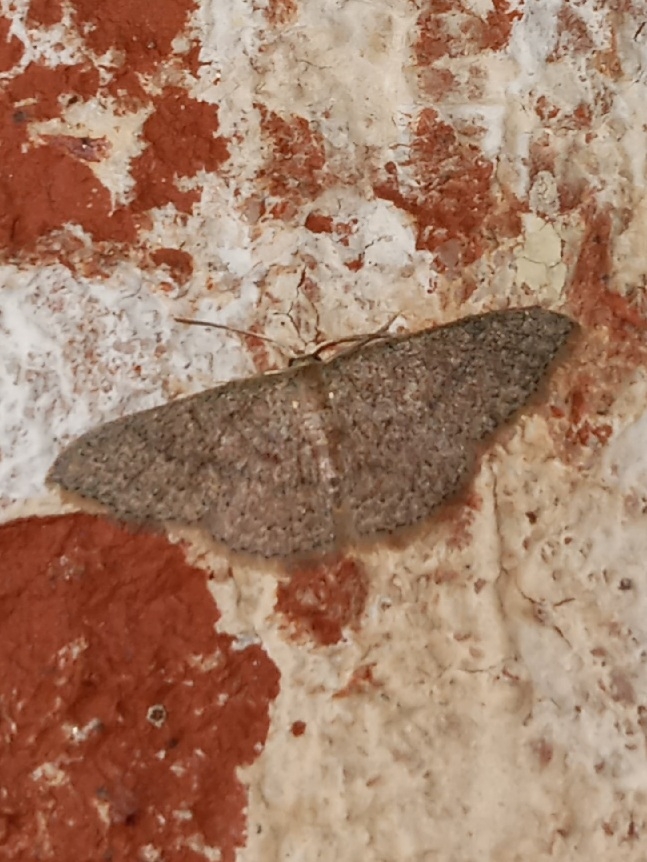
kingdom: Animalia
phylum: Arthropoda
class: Insecta
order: Lepidoptera
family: Geometridae
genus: Pleuroprucha
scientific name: Pleuroprucha insulsaria
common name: Common tan wave
